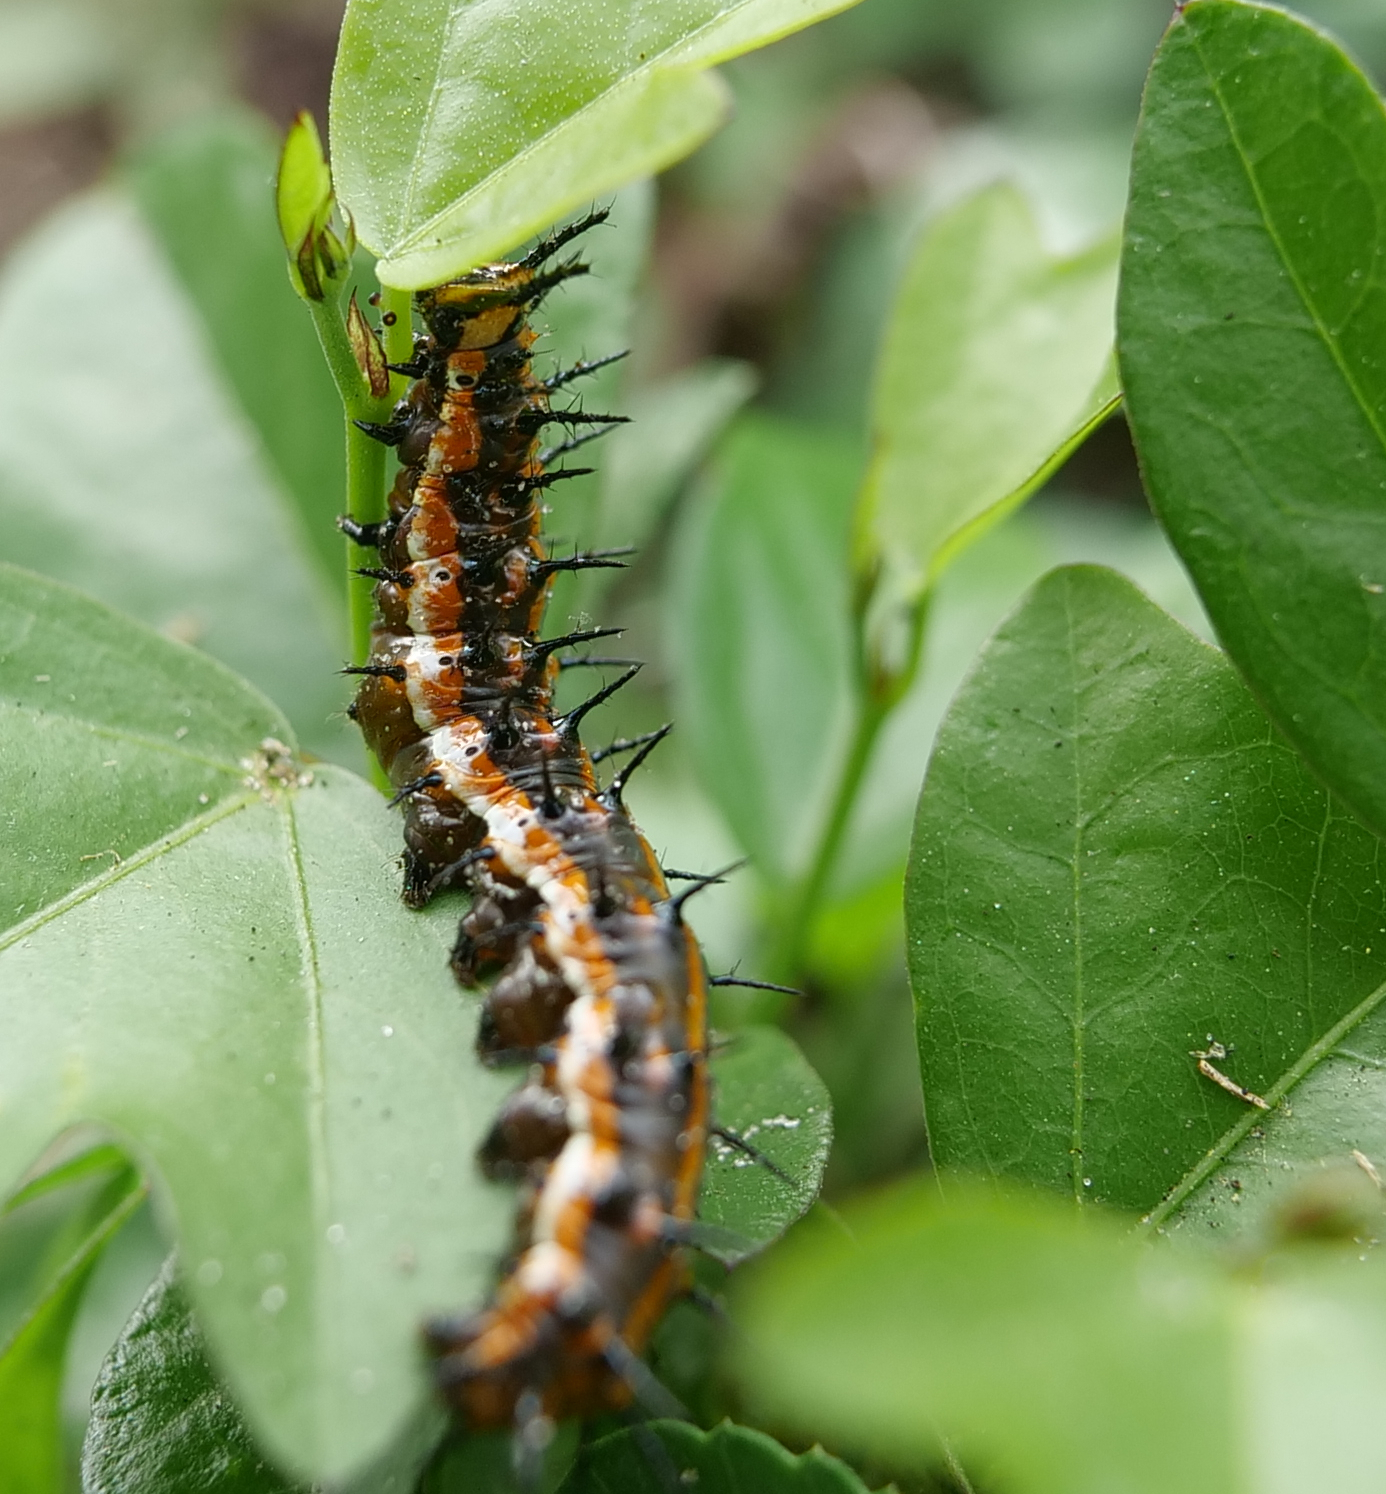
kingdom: Animalia
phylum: Arthropoda
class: Insecta
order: Lepidoptera
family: Nymphalidae
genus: Dione
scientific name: Dione vanillae
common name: Gulf fritillary
